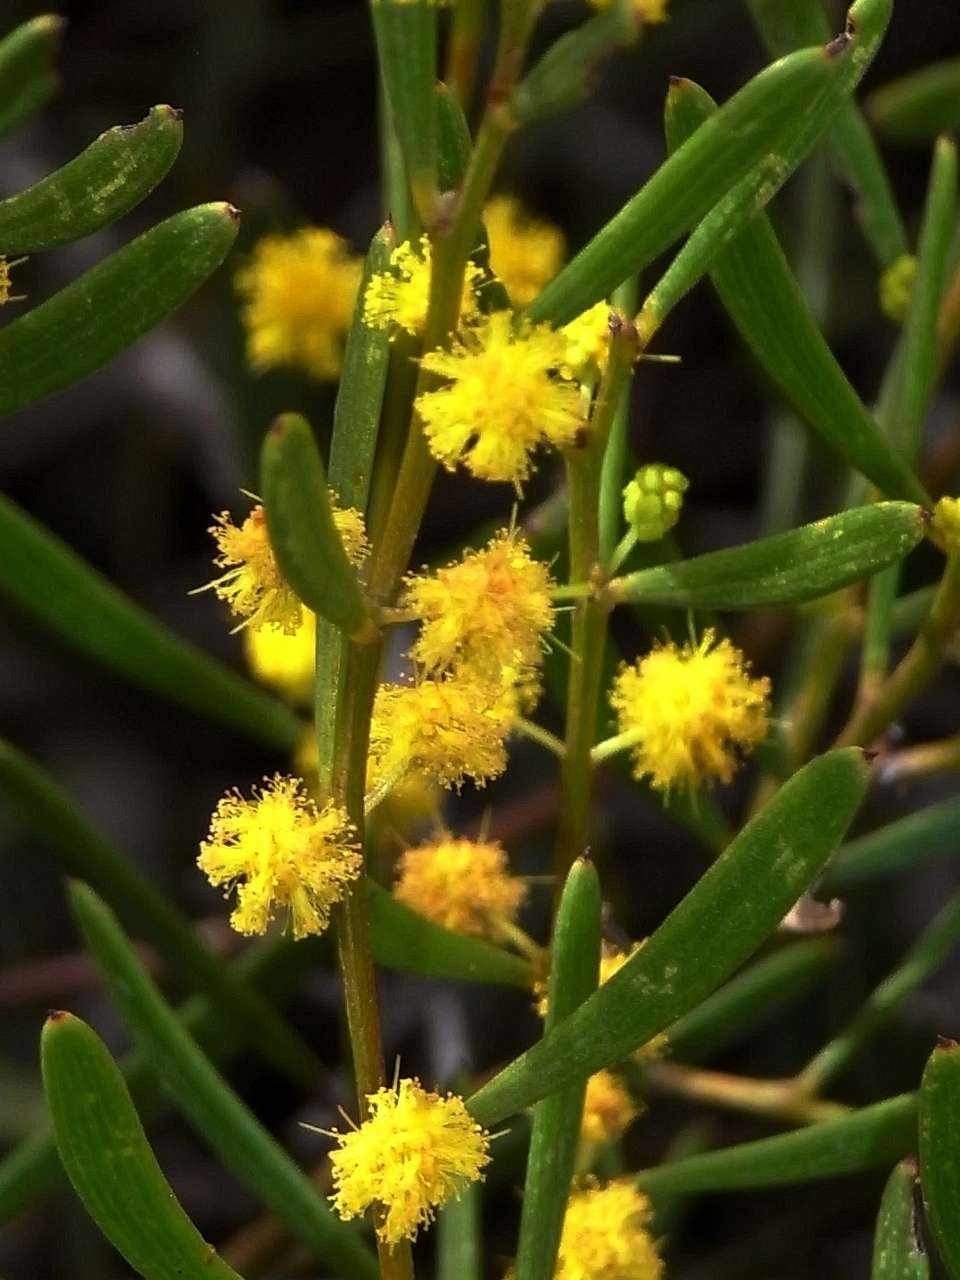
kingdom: Plantae
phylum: Tracheophyta
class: Magnoliopsida
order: Fabales
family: Fabaceae
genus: Acacia
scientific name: Acacia sclerophylla
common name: Hard-leaf wattle
